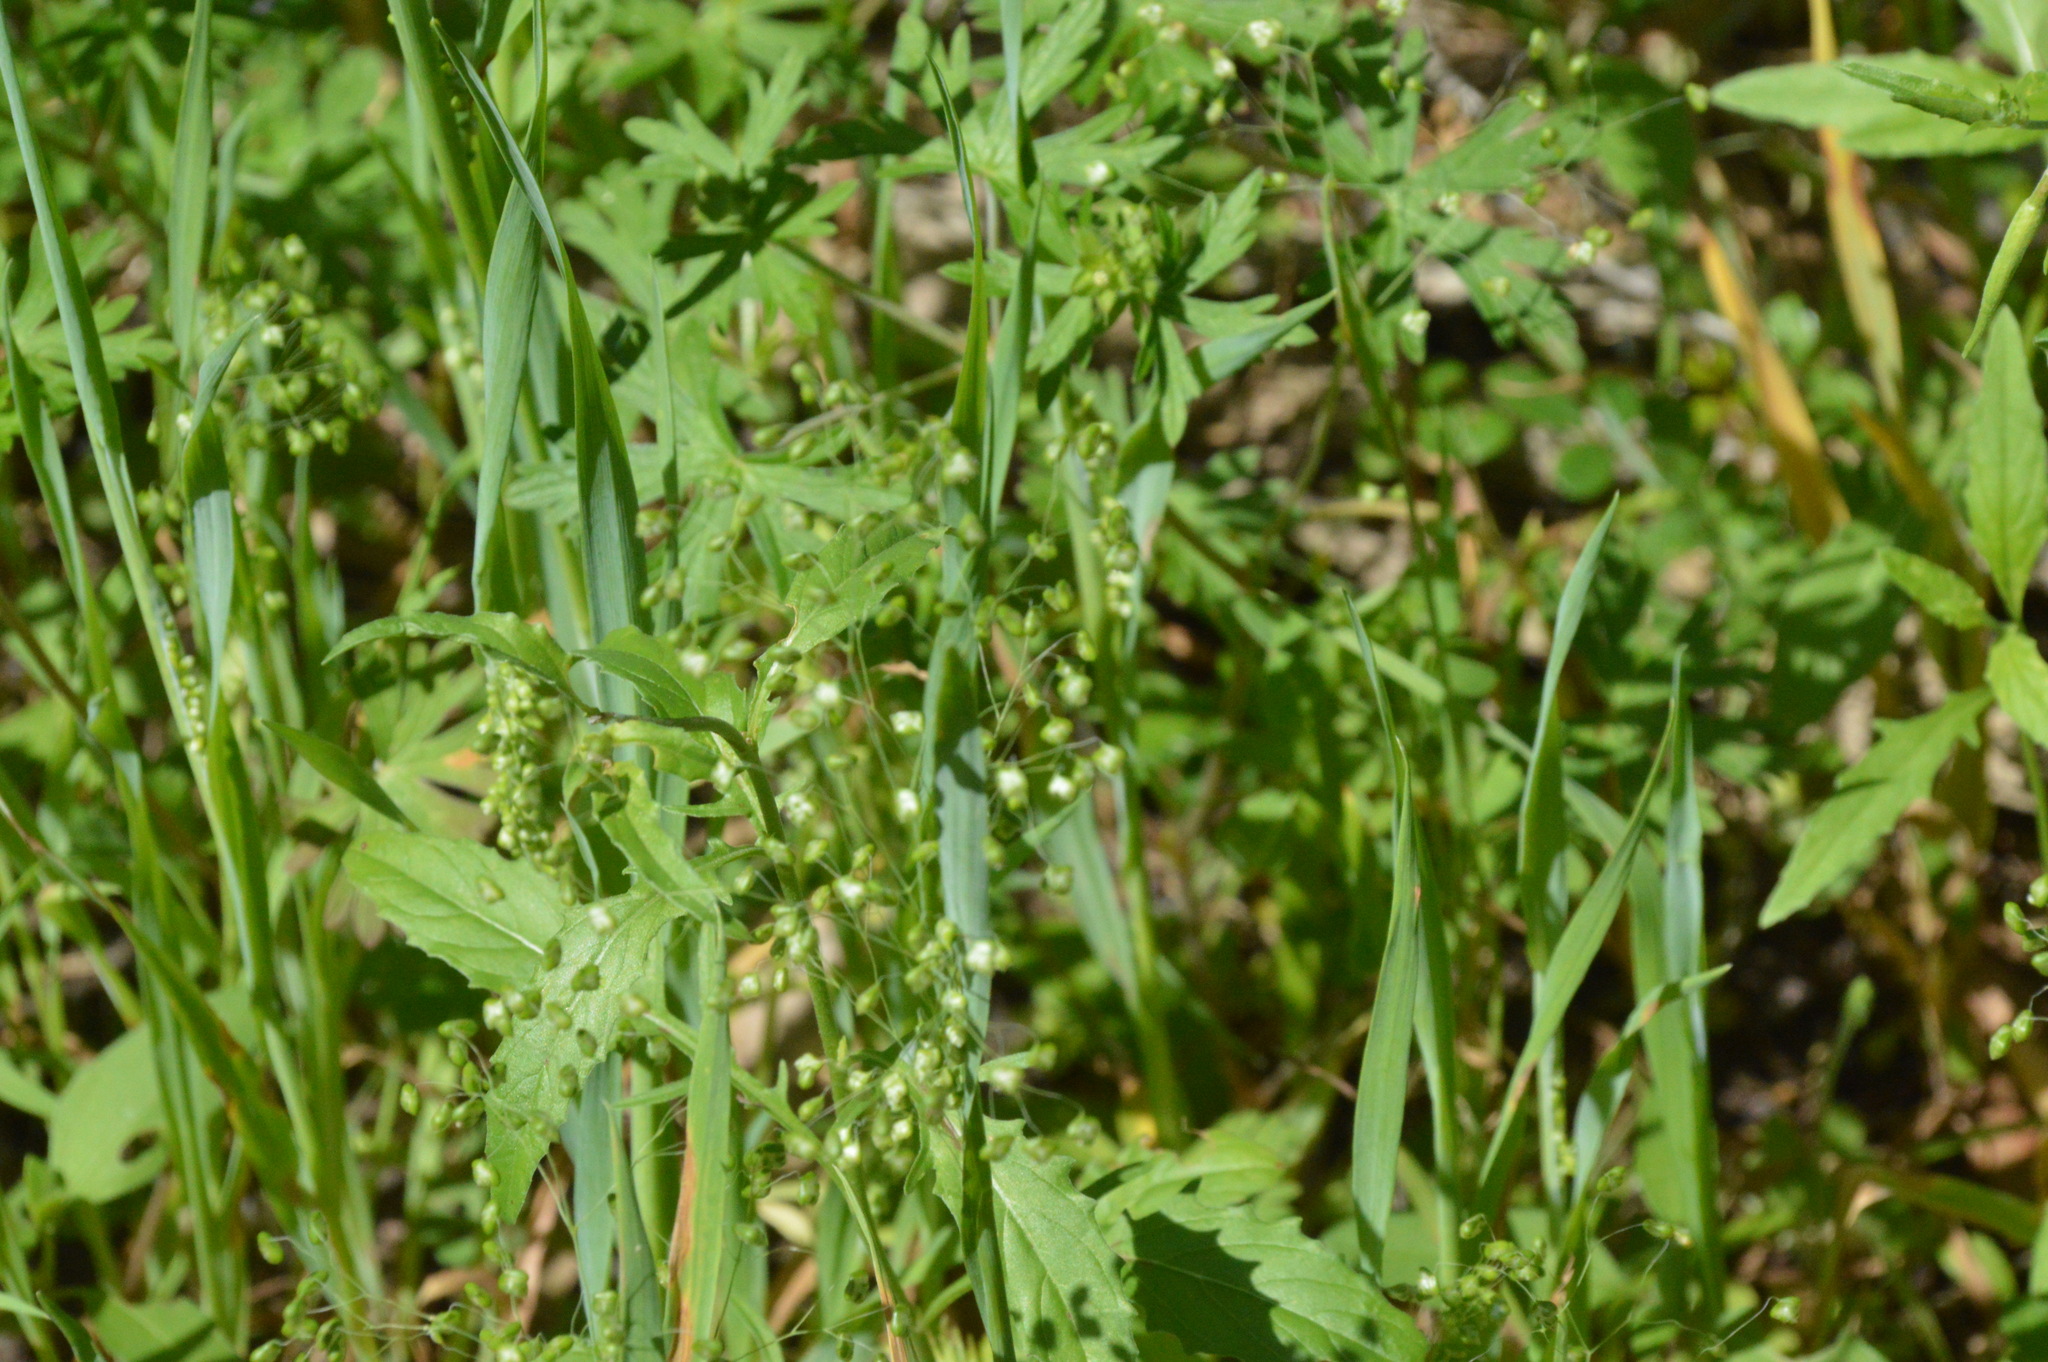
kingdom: Plantae
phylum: Tracheophyta
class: Liliopsida
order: Poales
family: Poaceae
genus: Briza
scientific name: Briza minor
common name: Lesser quaking-grass
